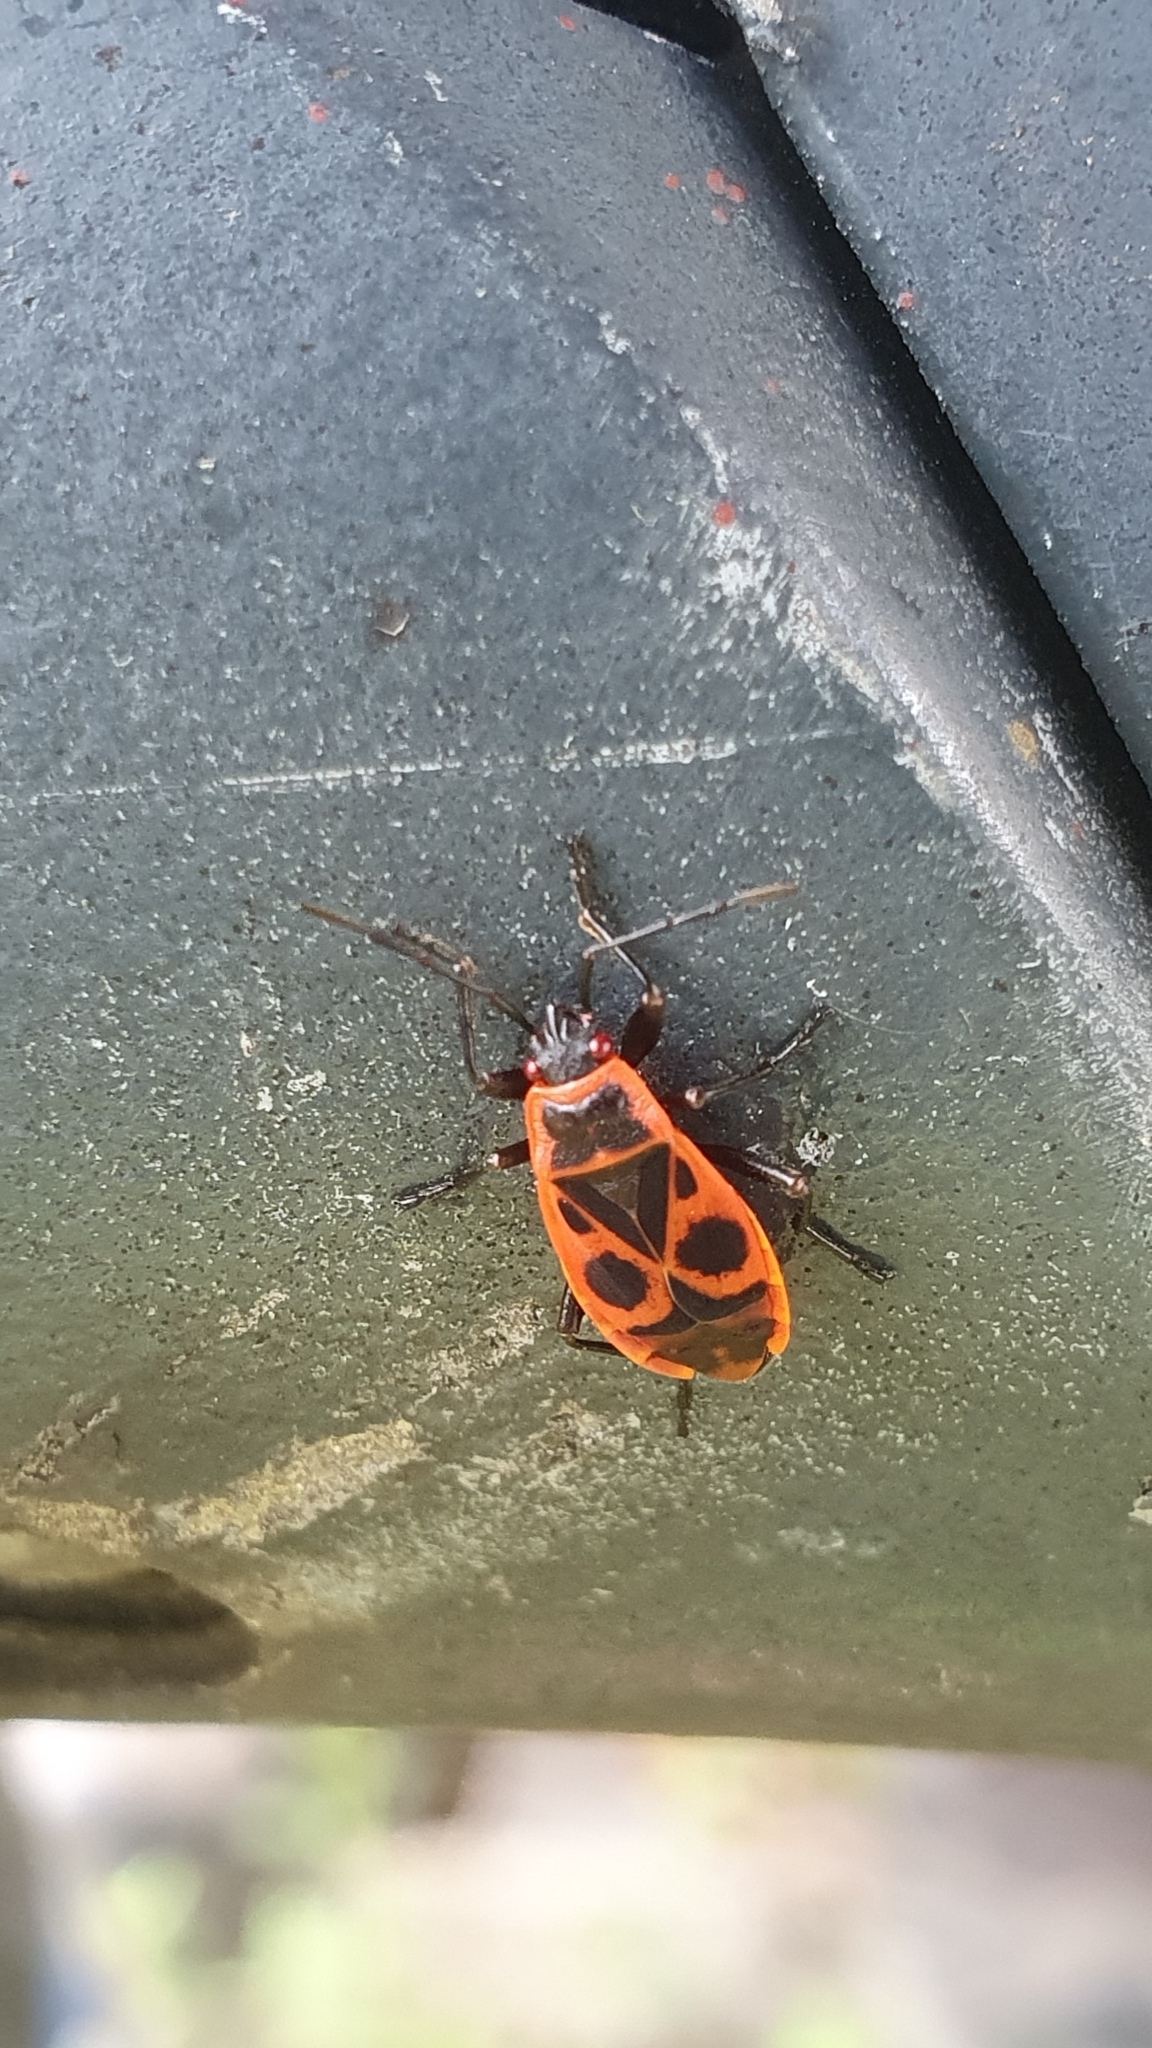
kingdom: Animalia
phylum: Arthropoda
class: Insecta
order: Hemiptera
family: Pyrrhocoridae
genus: Pyrrhocoris
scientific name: Pyrrhocoris apterus
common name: Firebug
